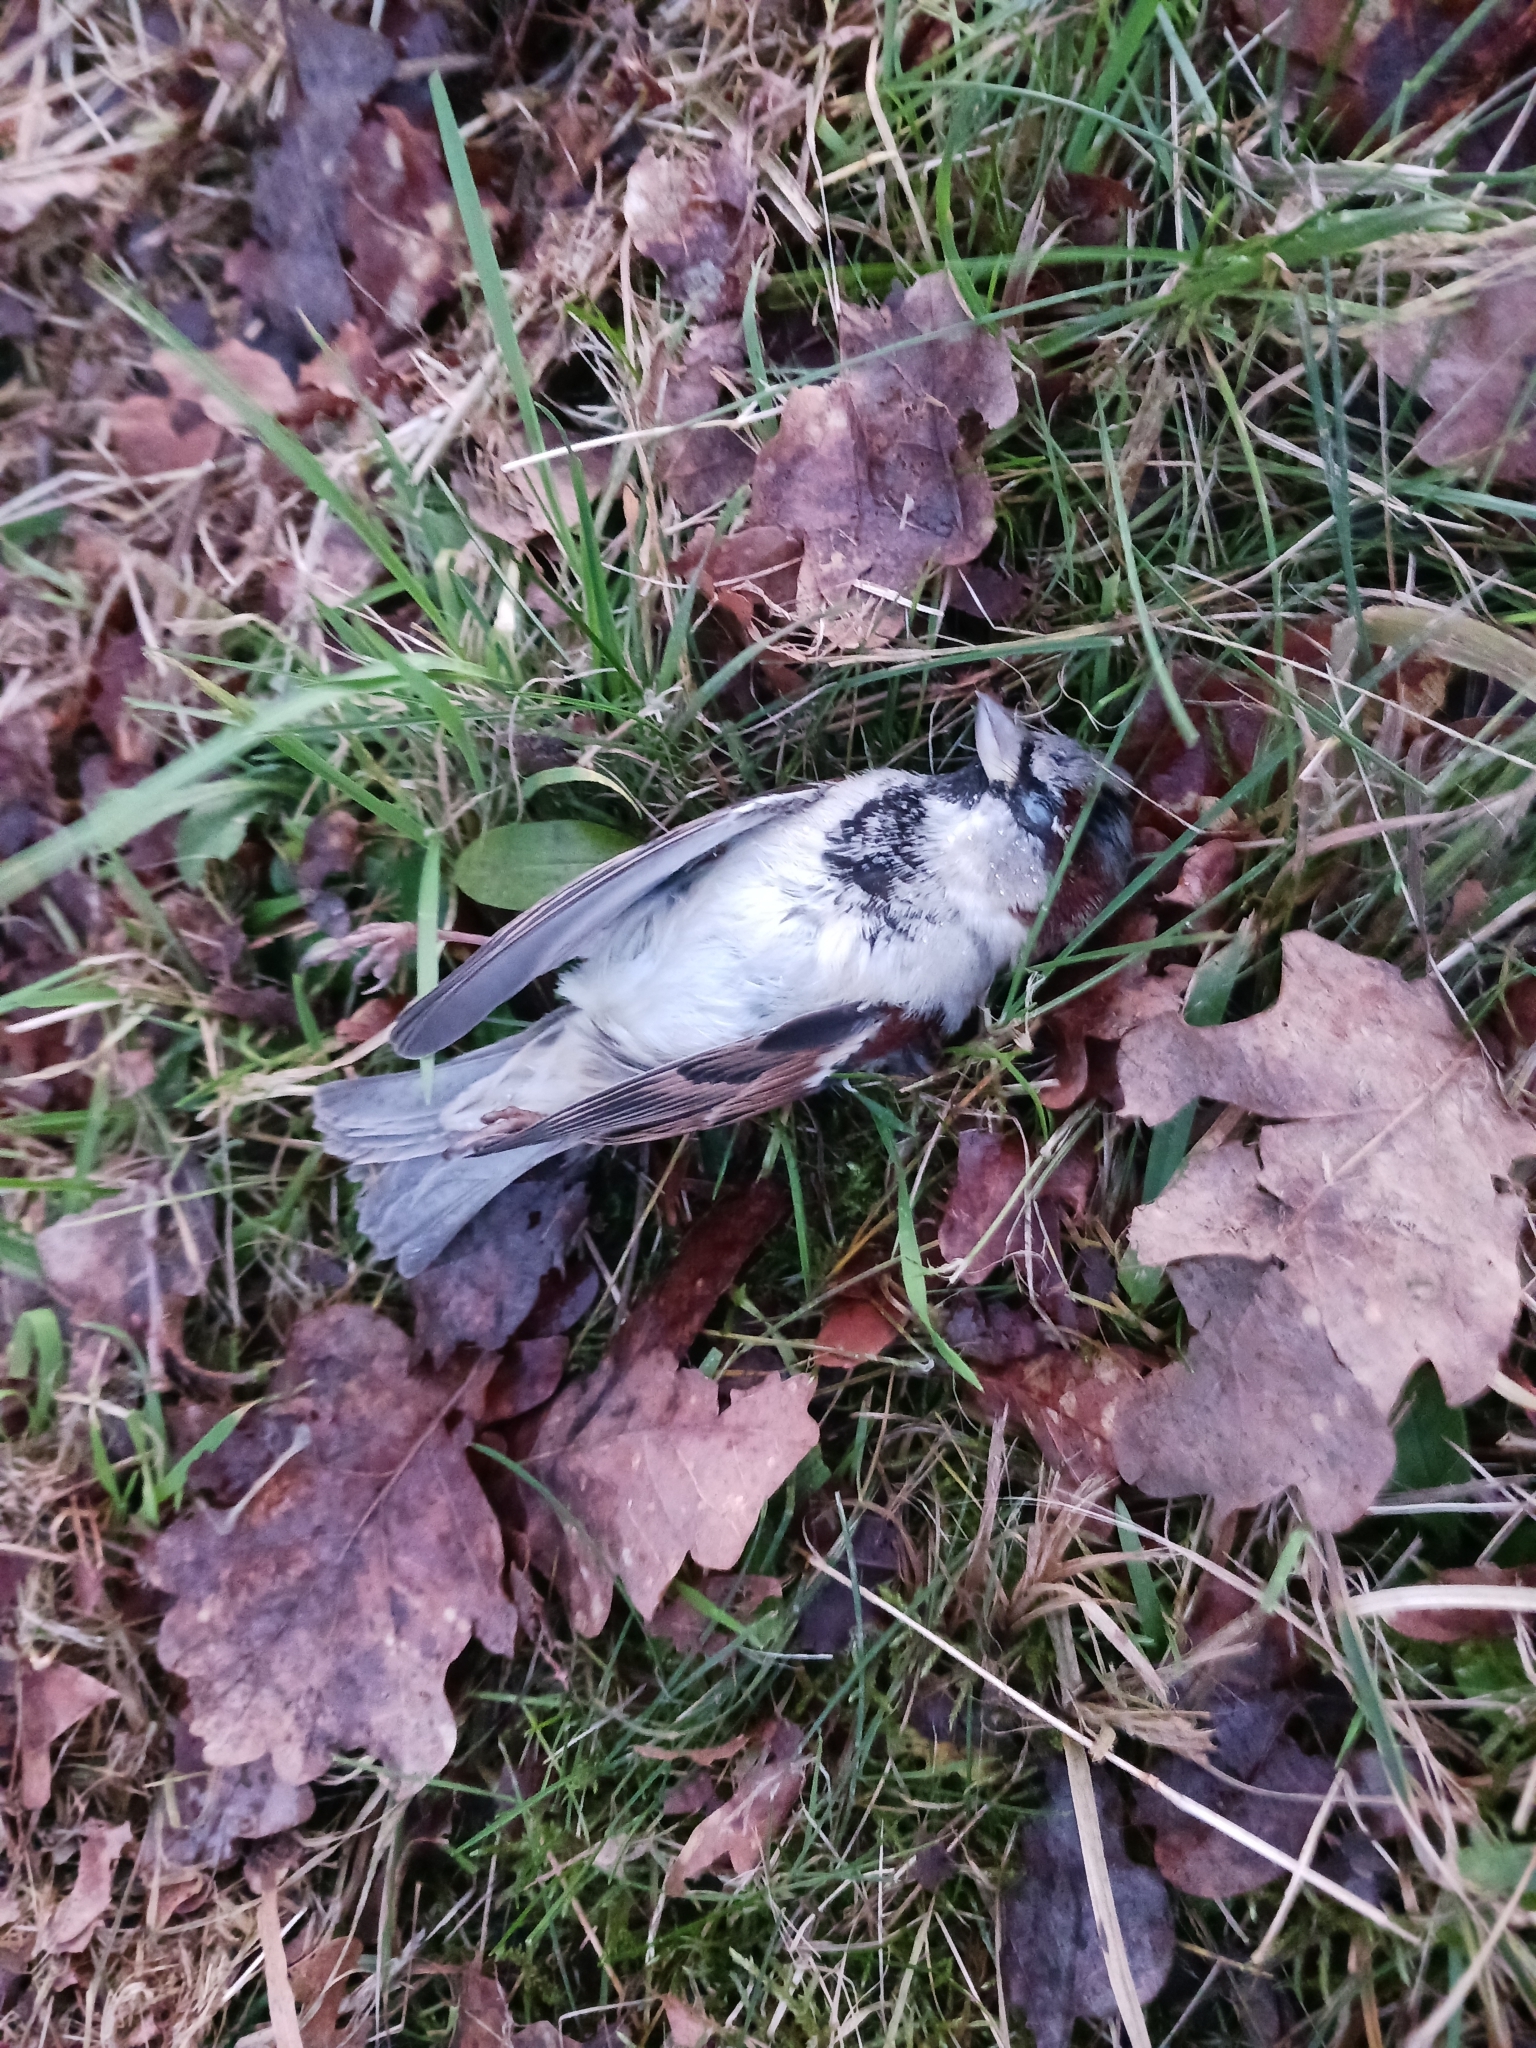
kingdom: Animalia
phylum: Chordata
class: Aves
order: Passeriformes
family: Passeridae
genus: Passer
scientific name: Passer domesticus
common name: House sparrow
